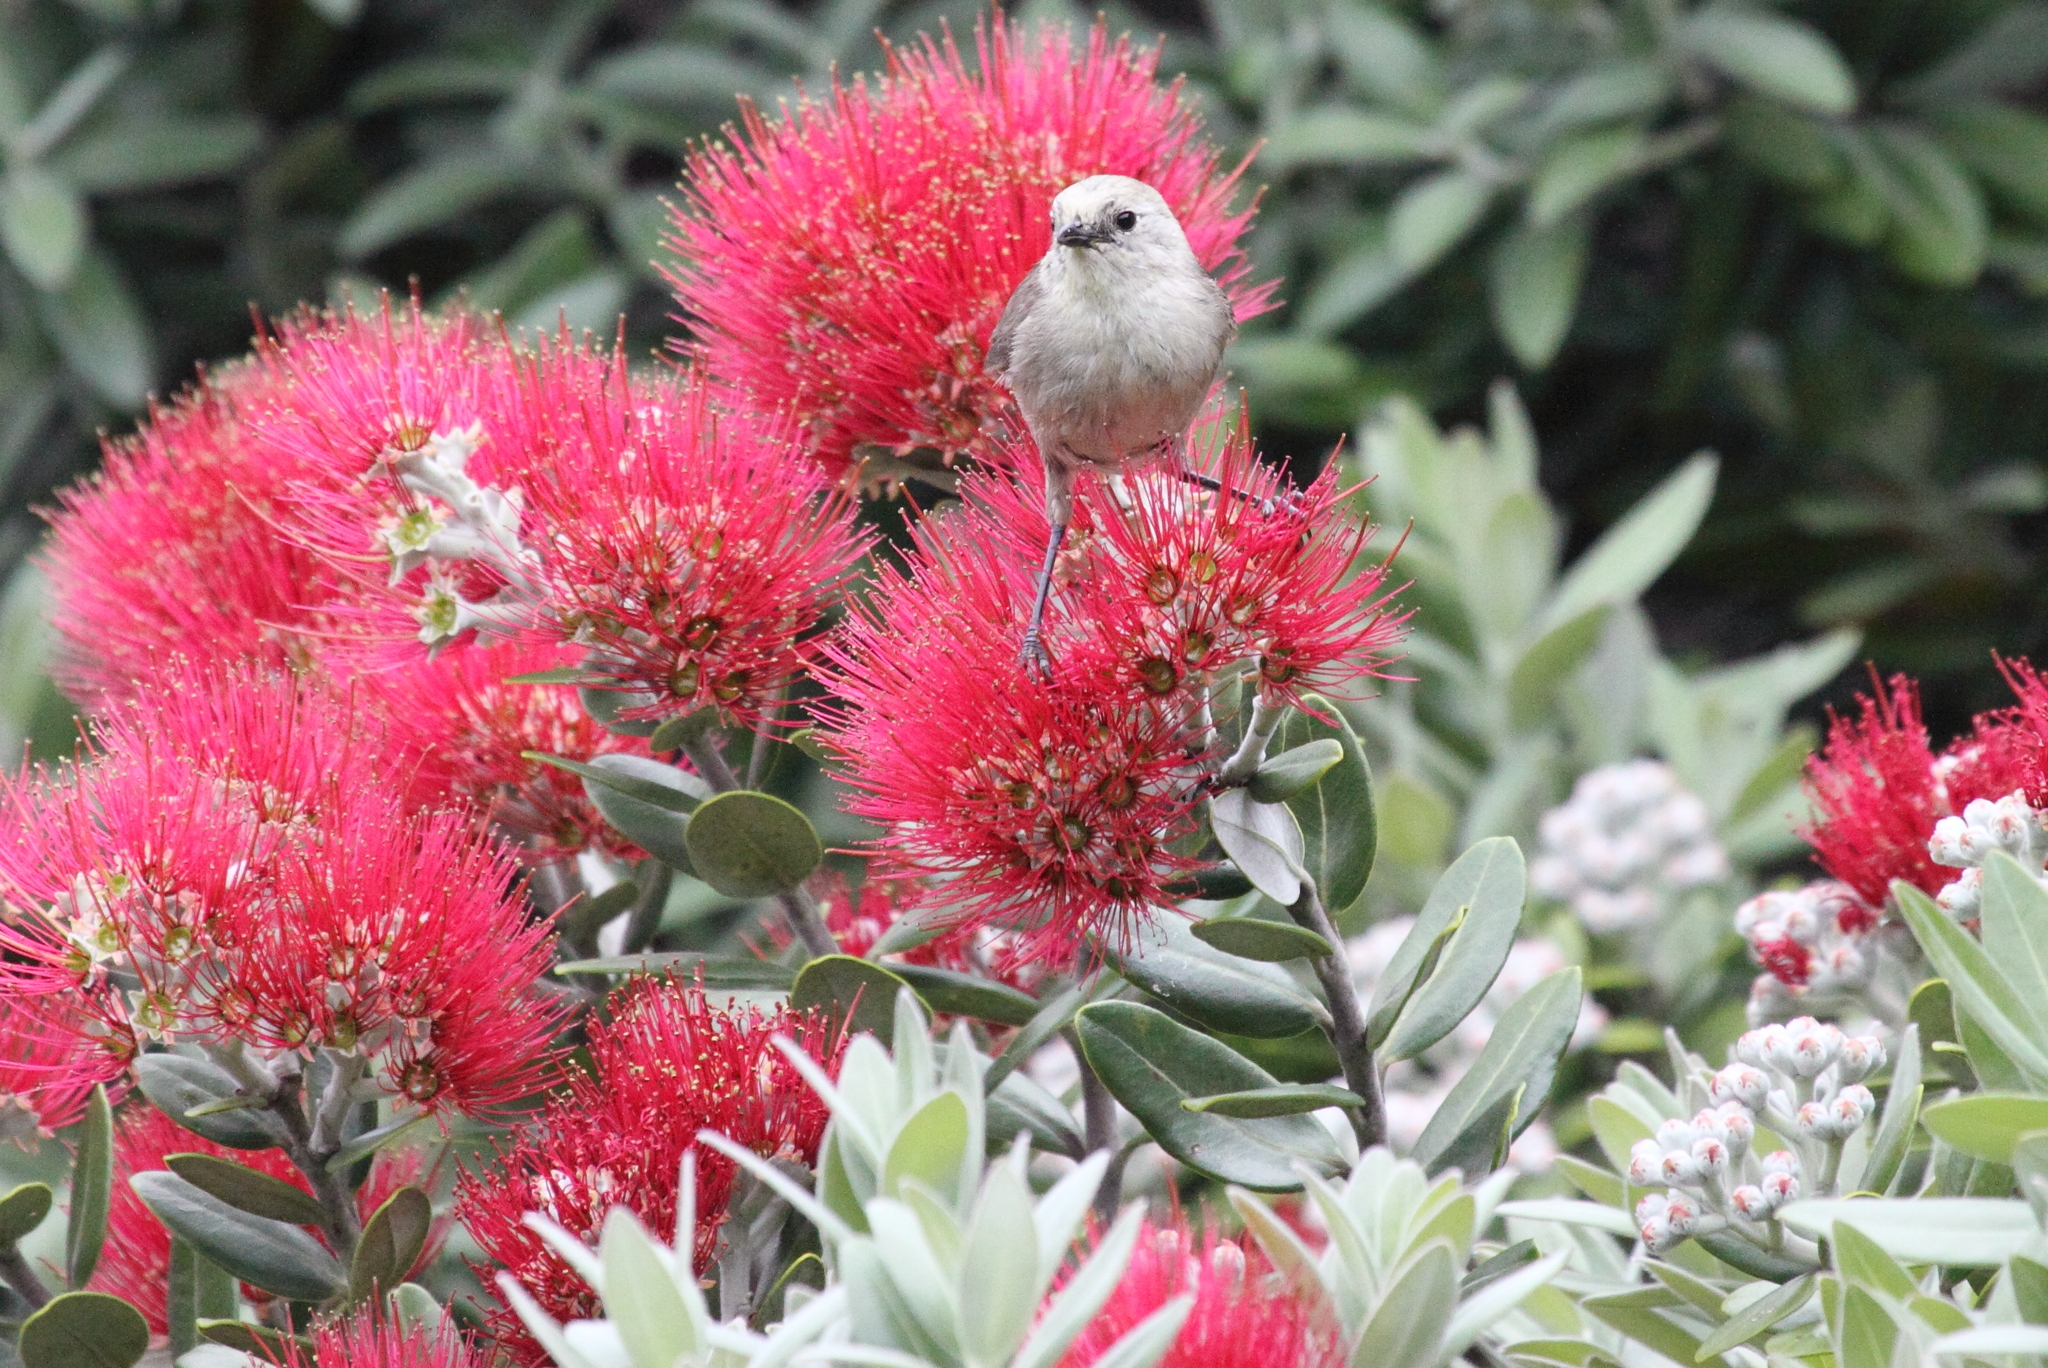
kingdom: Plantae
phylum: Tracheophyta
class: Magnoliopsida
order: Myrtales
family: Myrtaceae
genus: Metrosideros
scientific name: Metrosideros excelsa
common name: New zealand christmastree
